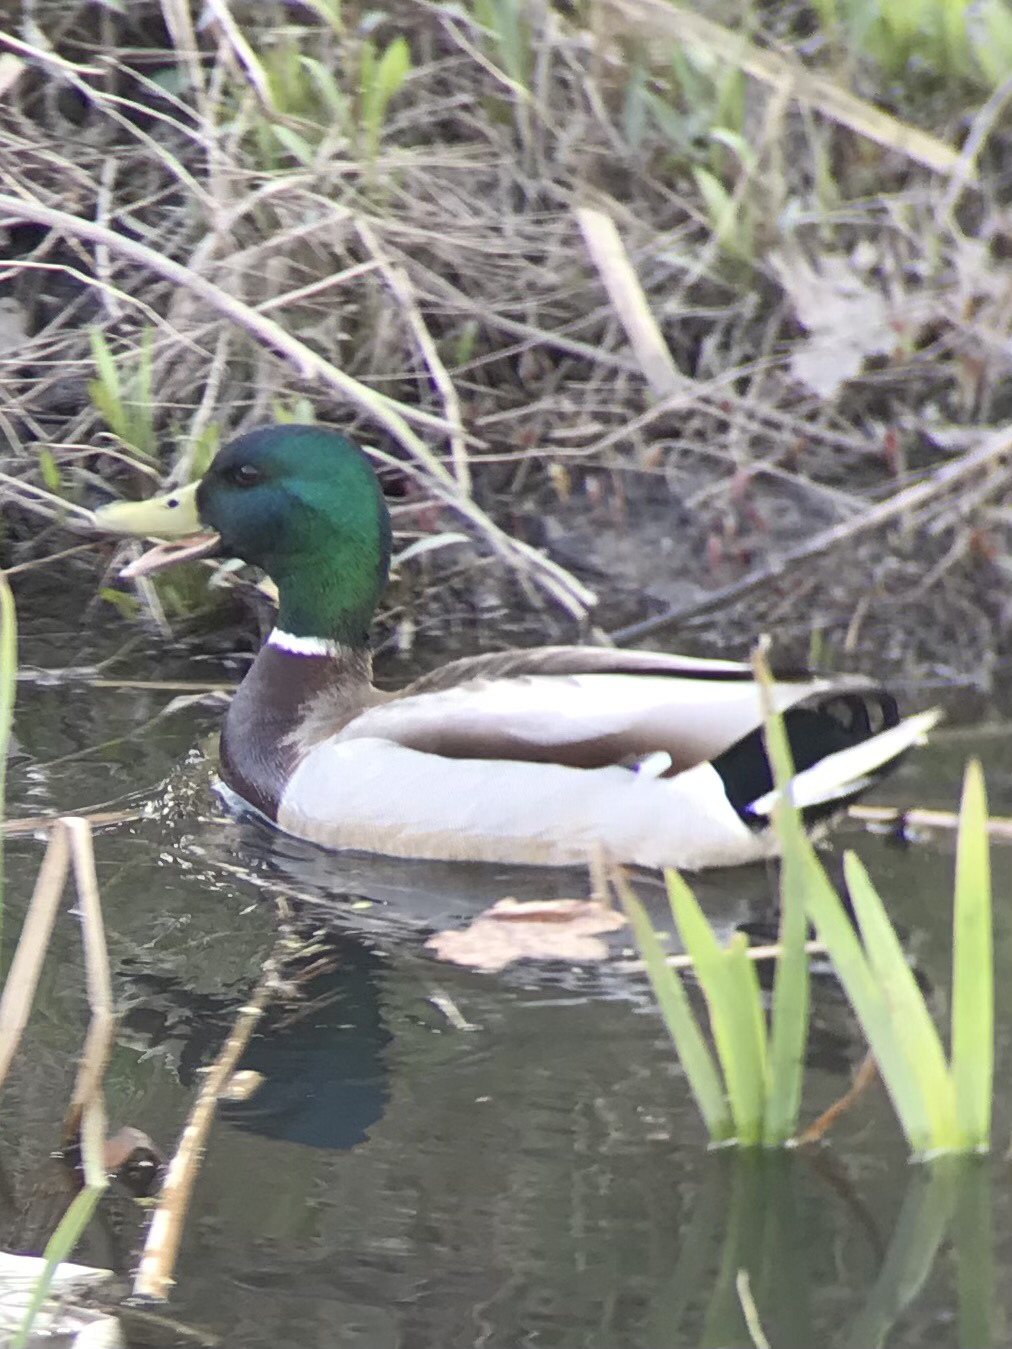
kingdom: Animalia
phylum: Chordata
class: Aves
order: Anseriformes
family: Anatidae
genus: Anas
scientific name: Anas platyrhynchos
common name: Mallard
